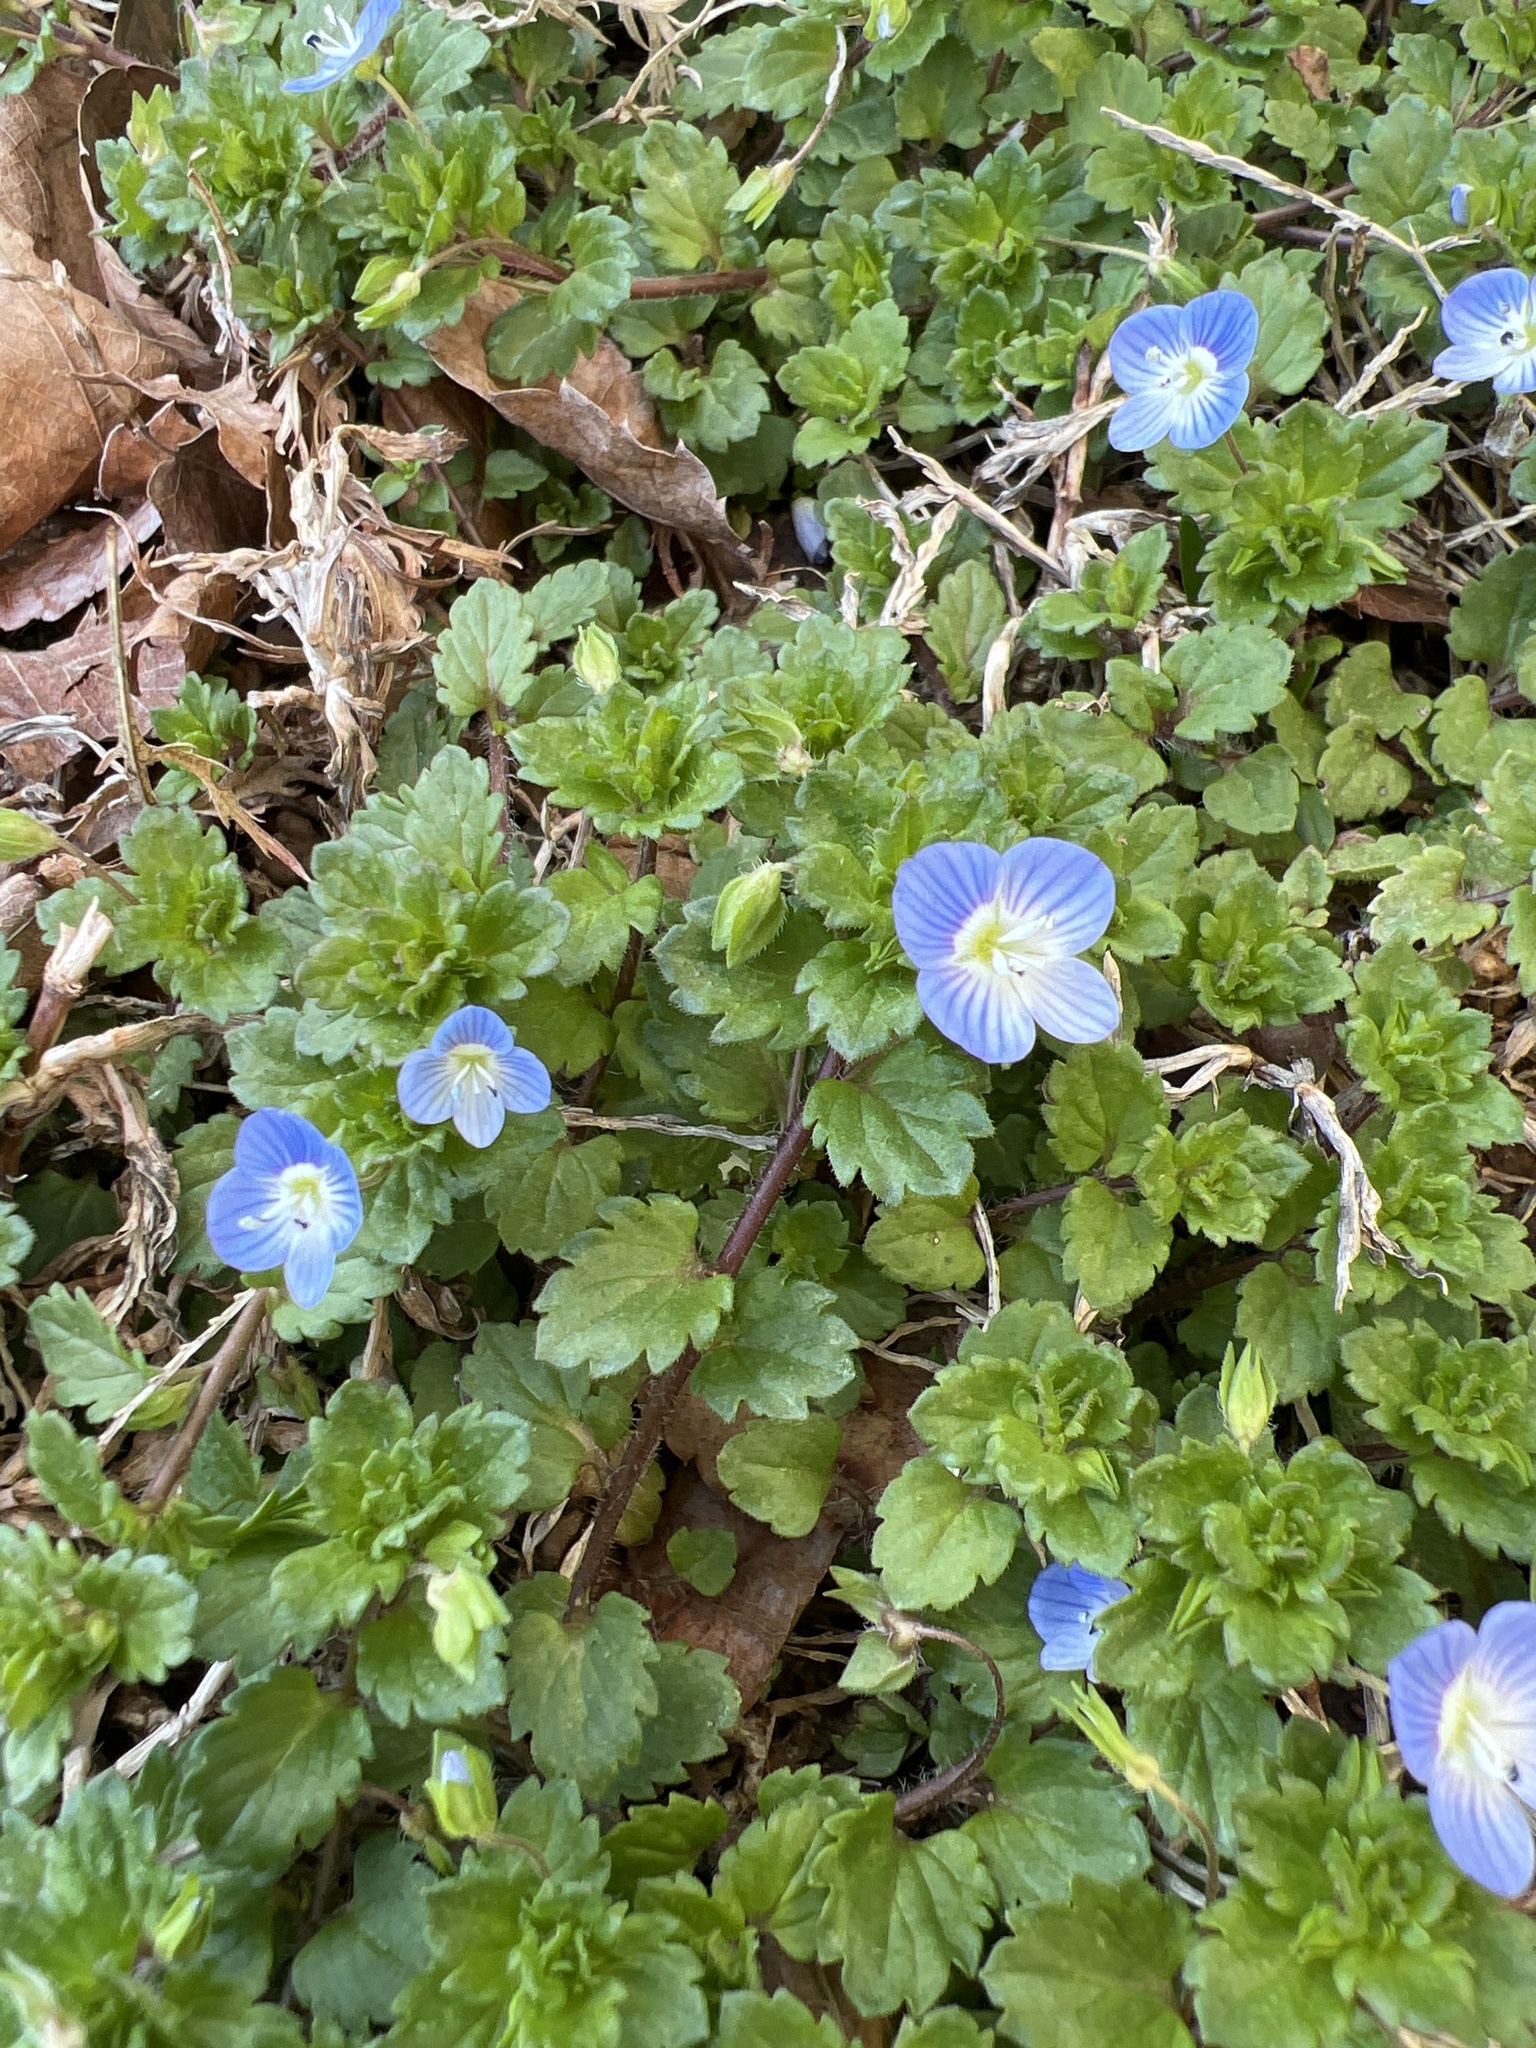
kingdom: Plantae
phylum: Tracheophyta
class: Magnoliopsida
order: Lamiales
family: Plantaginaceae
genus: Veronica
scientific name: Veronica persica
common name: Common field-speedwell
